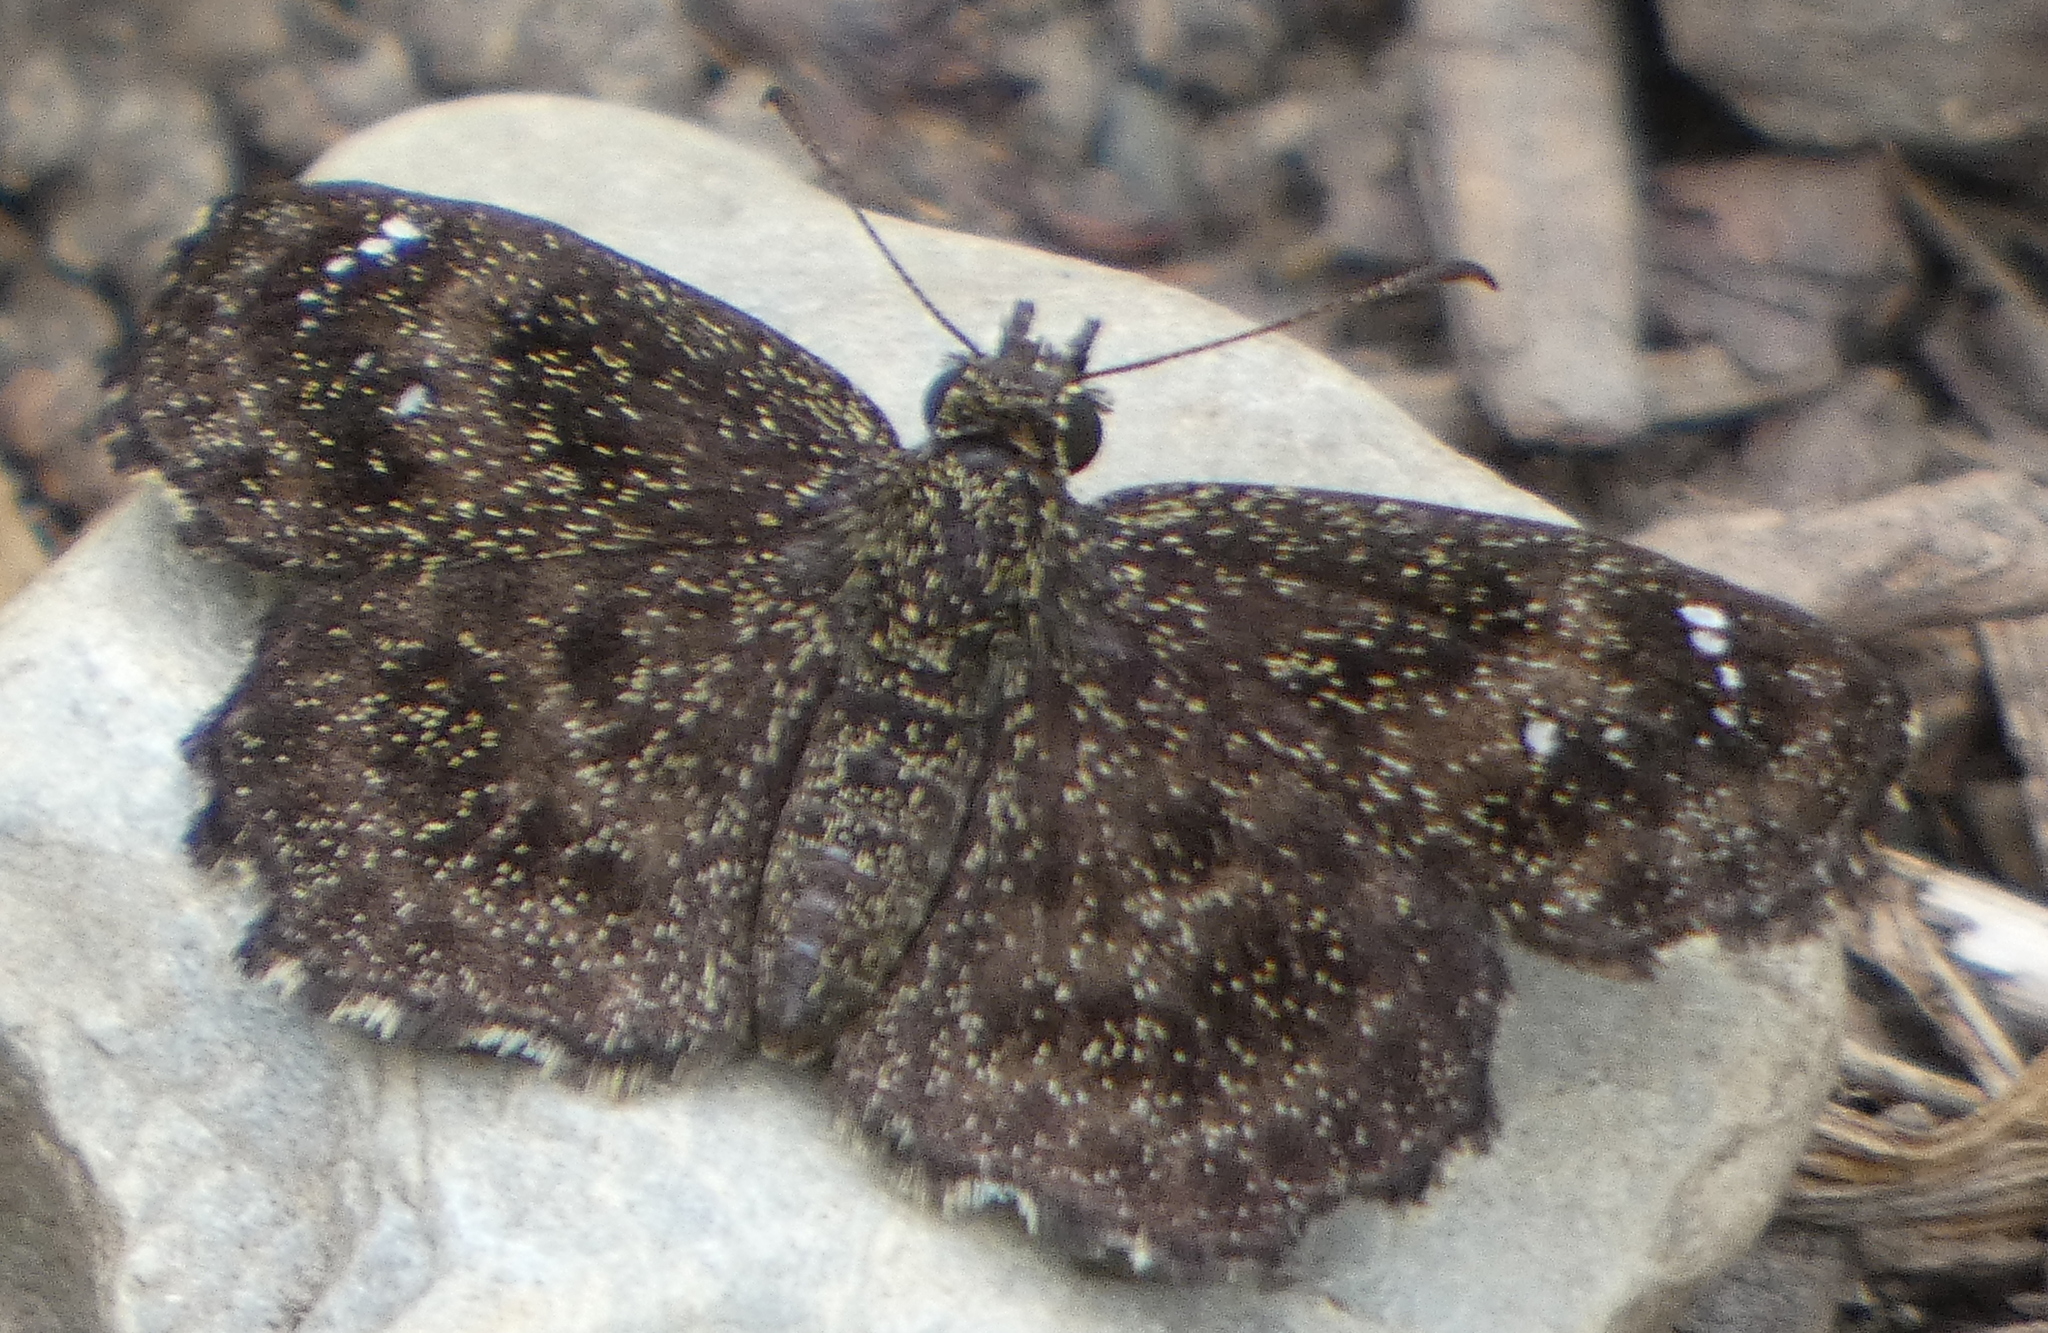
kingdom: Animalia
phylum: Arthropoda
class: Insecta
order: Lepidoptera
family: Hesperiidae
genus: Staphylus
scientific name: Staphylus mazans
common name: Mazans scallopwing
